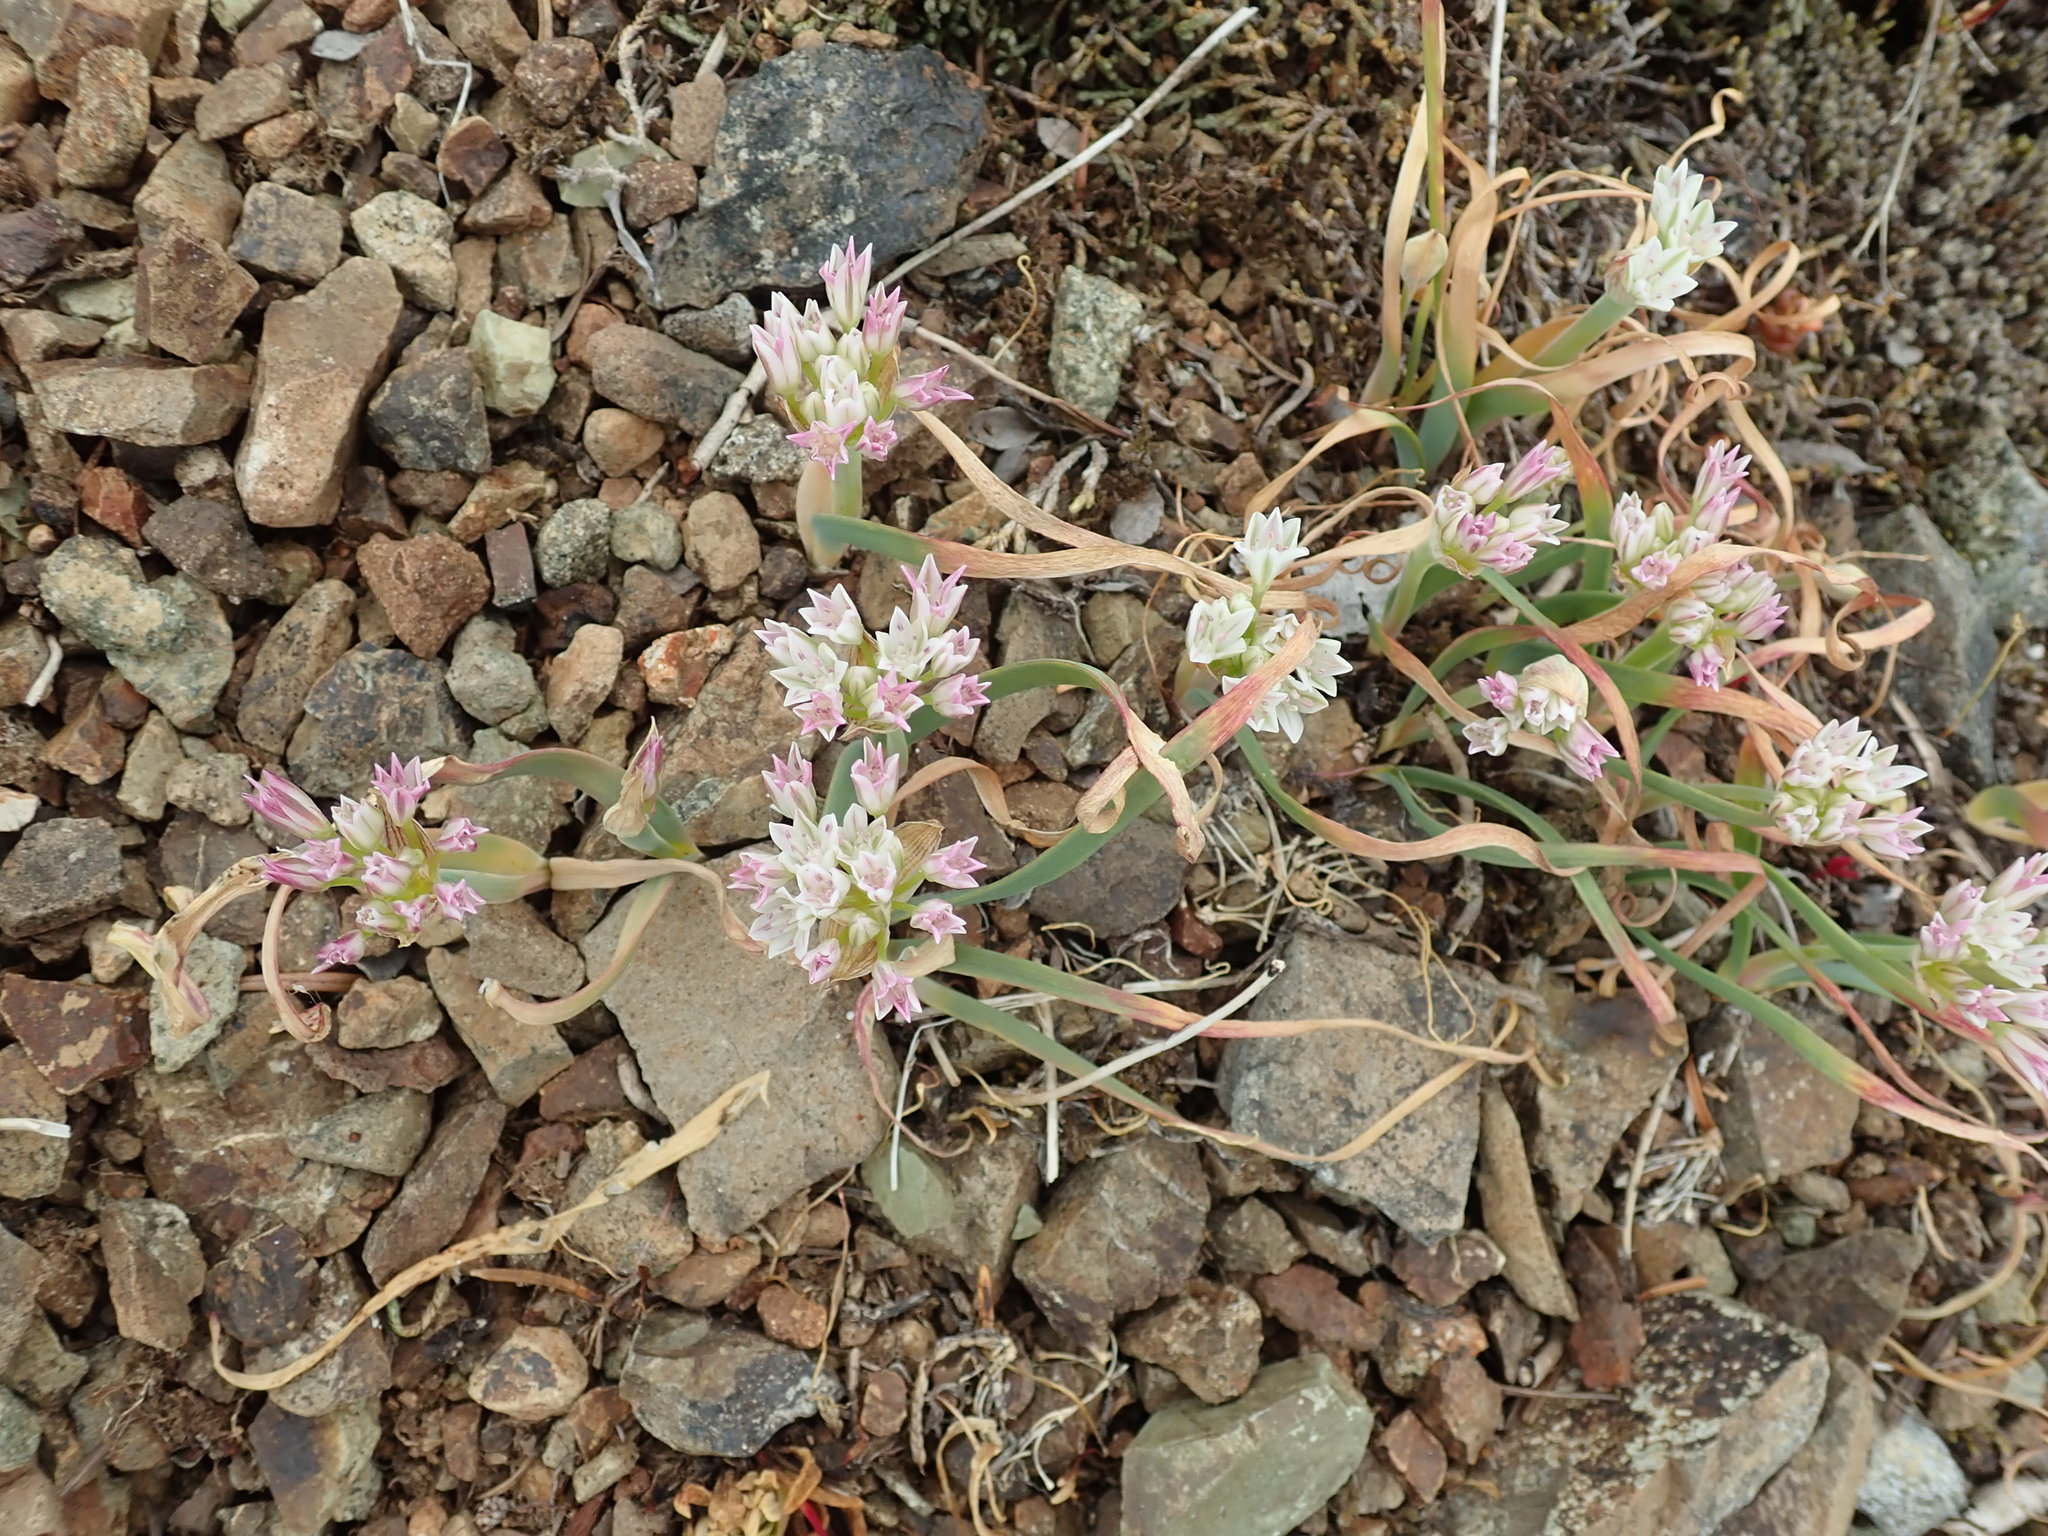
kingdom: Plantae
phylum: Tracheophyta
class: Liliopsida
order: Asparagales
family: Amaryllidaceae
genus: Allium
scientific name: Allium crenulatum
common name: Olympic onion
